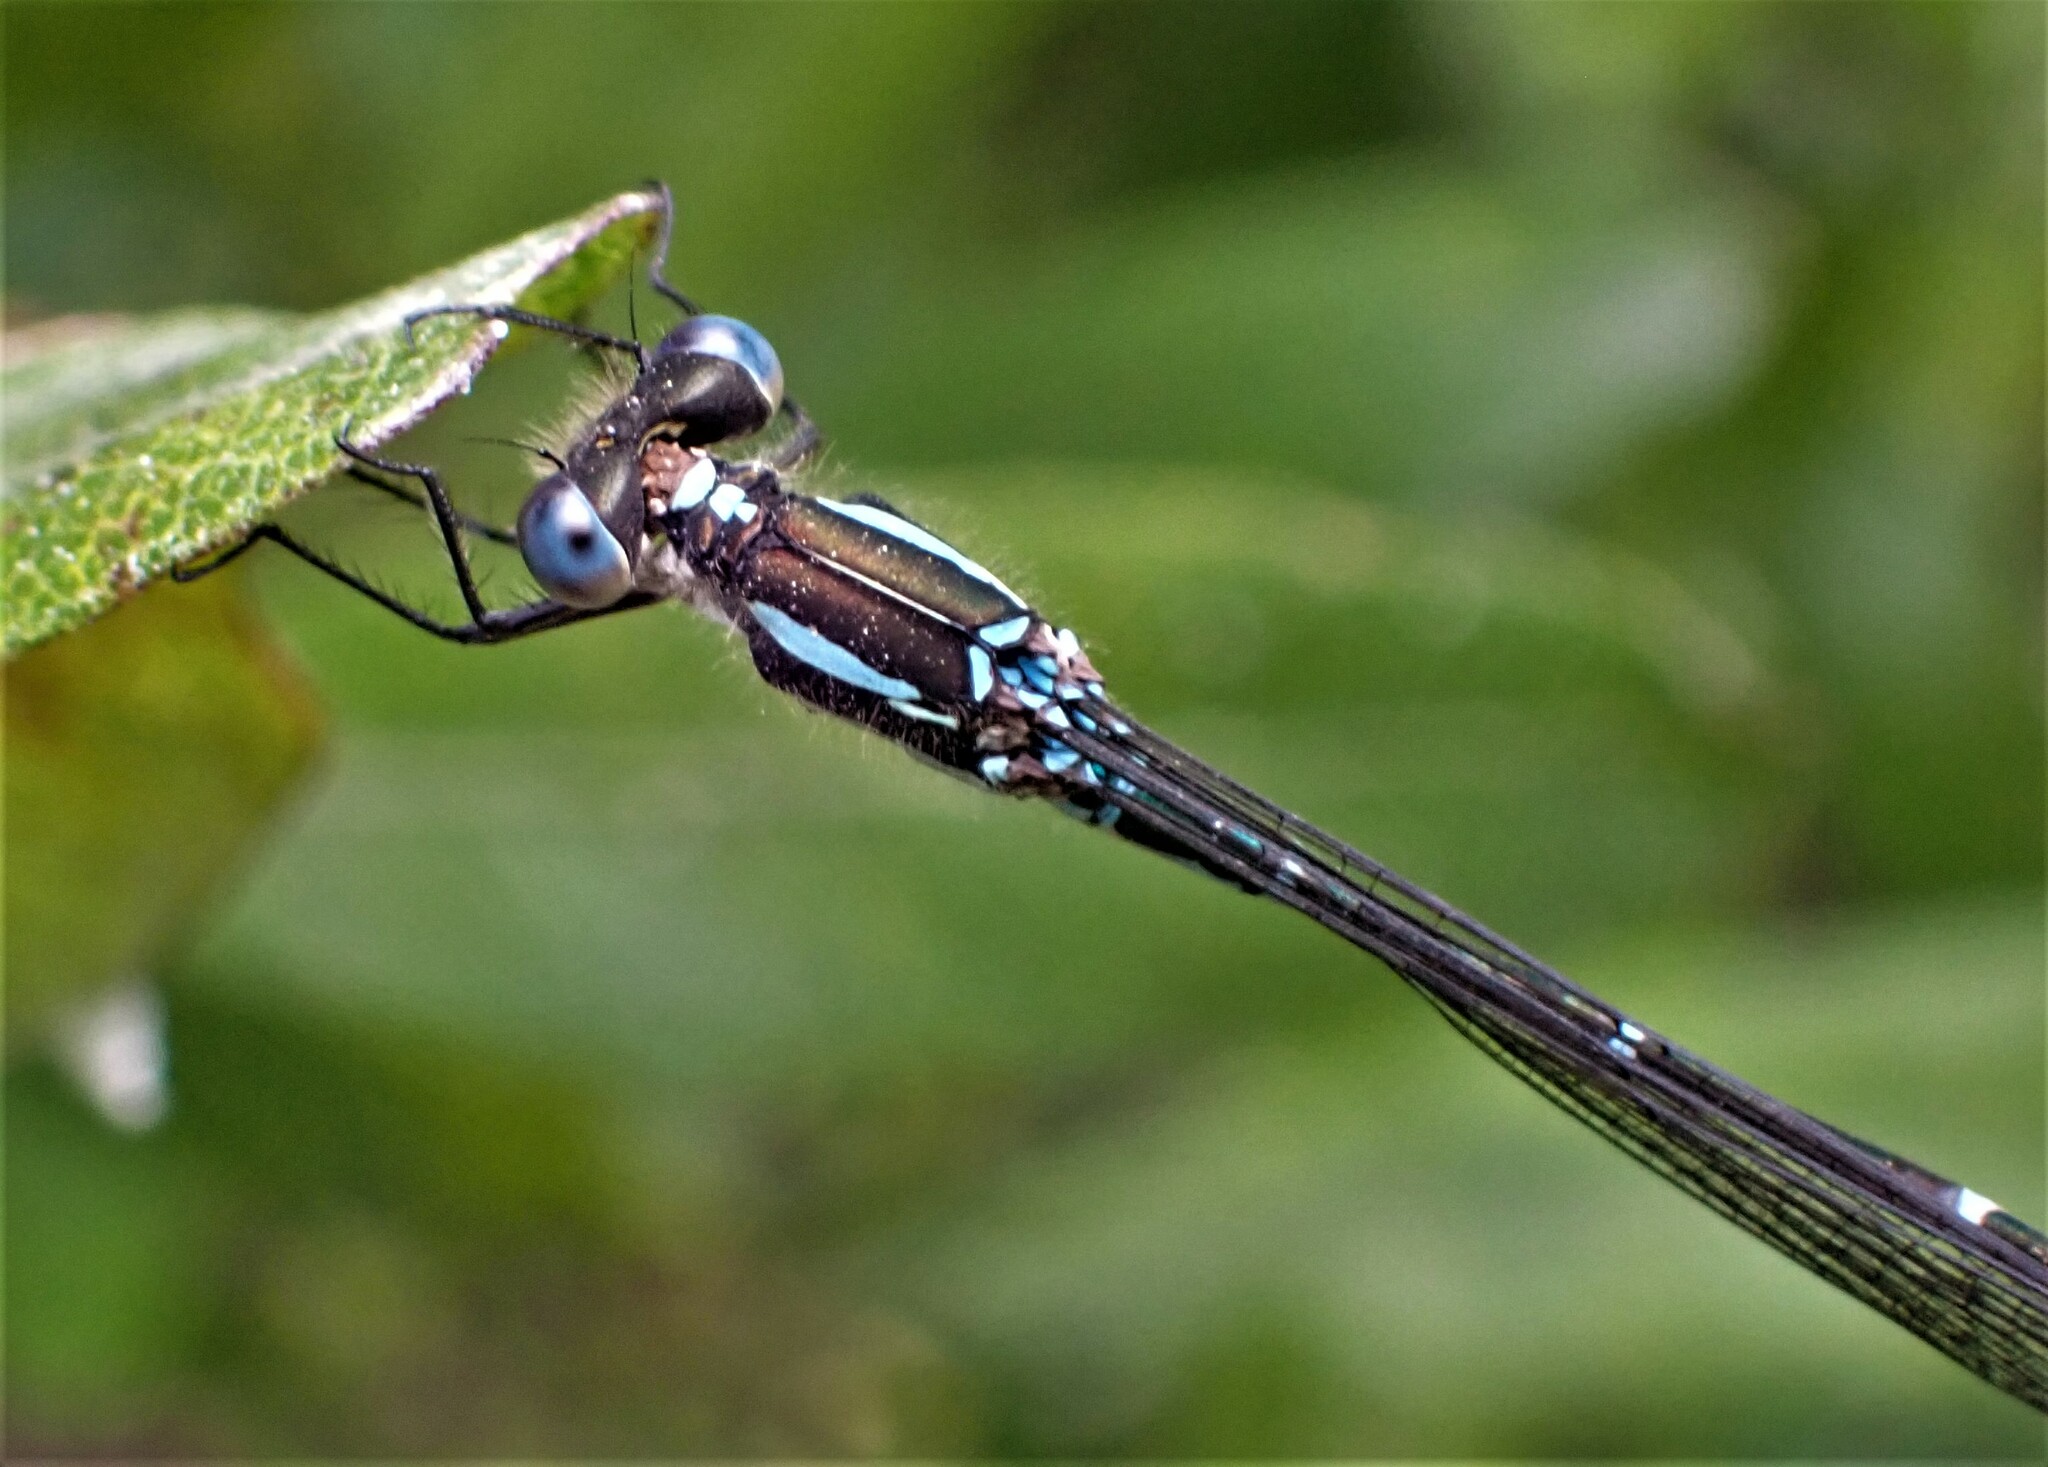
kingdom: Animalia
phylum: Arthropoda
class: Insecta
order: Odonata
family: Lestidae
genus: Austrolestes
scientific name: Austrolestes colensonis
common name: Blue damselfly
